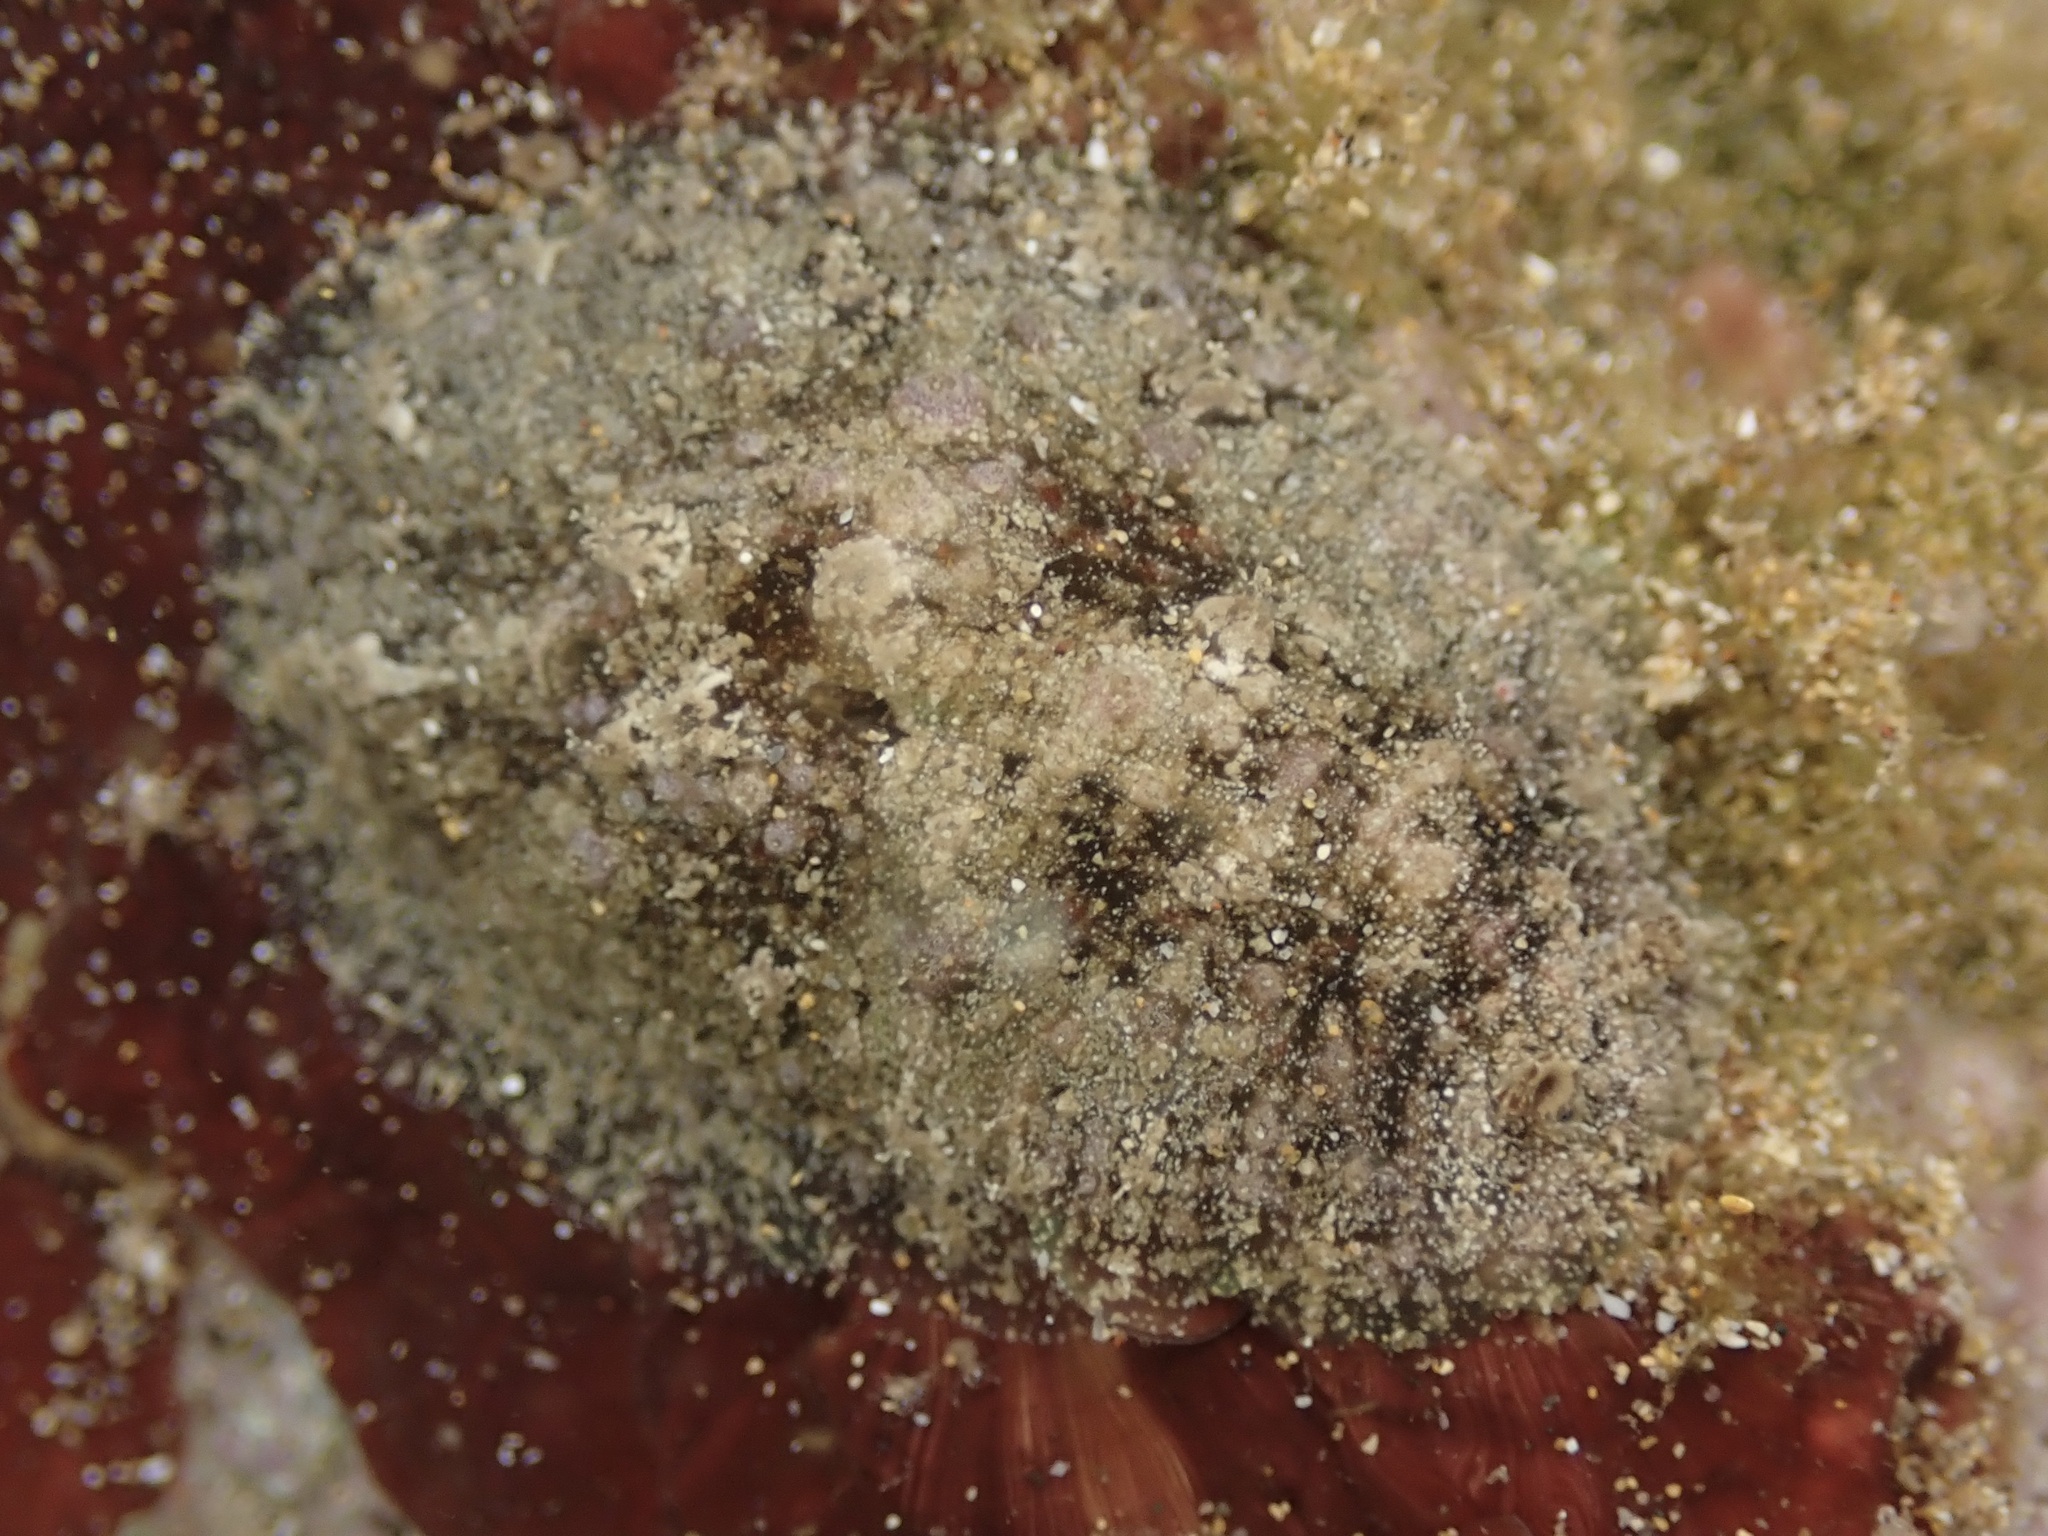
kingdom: Animalia
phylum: Mollusca
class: Gastropoda
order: Aplysiida
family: Aplysiidae
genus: Dolabrifera
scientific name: Dolabrifera dolabrifera
